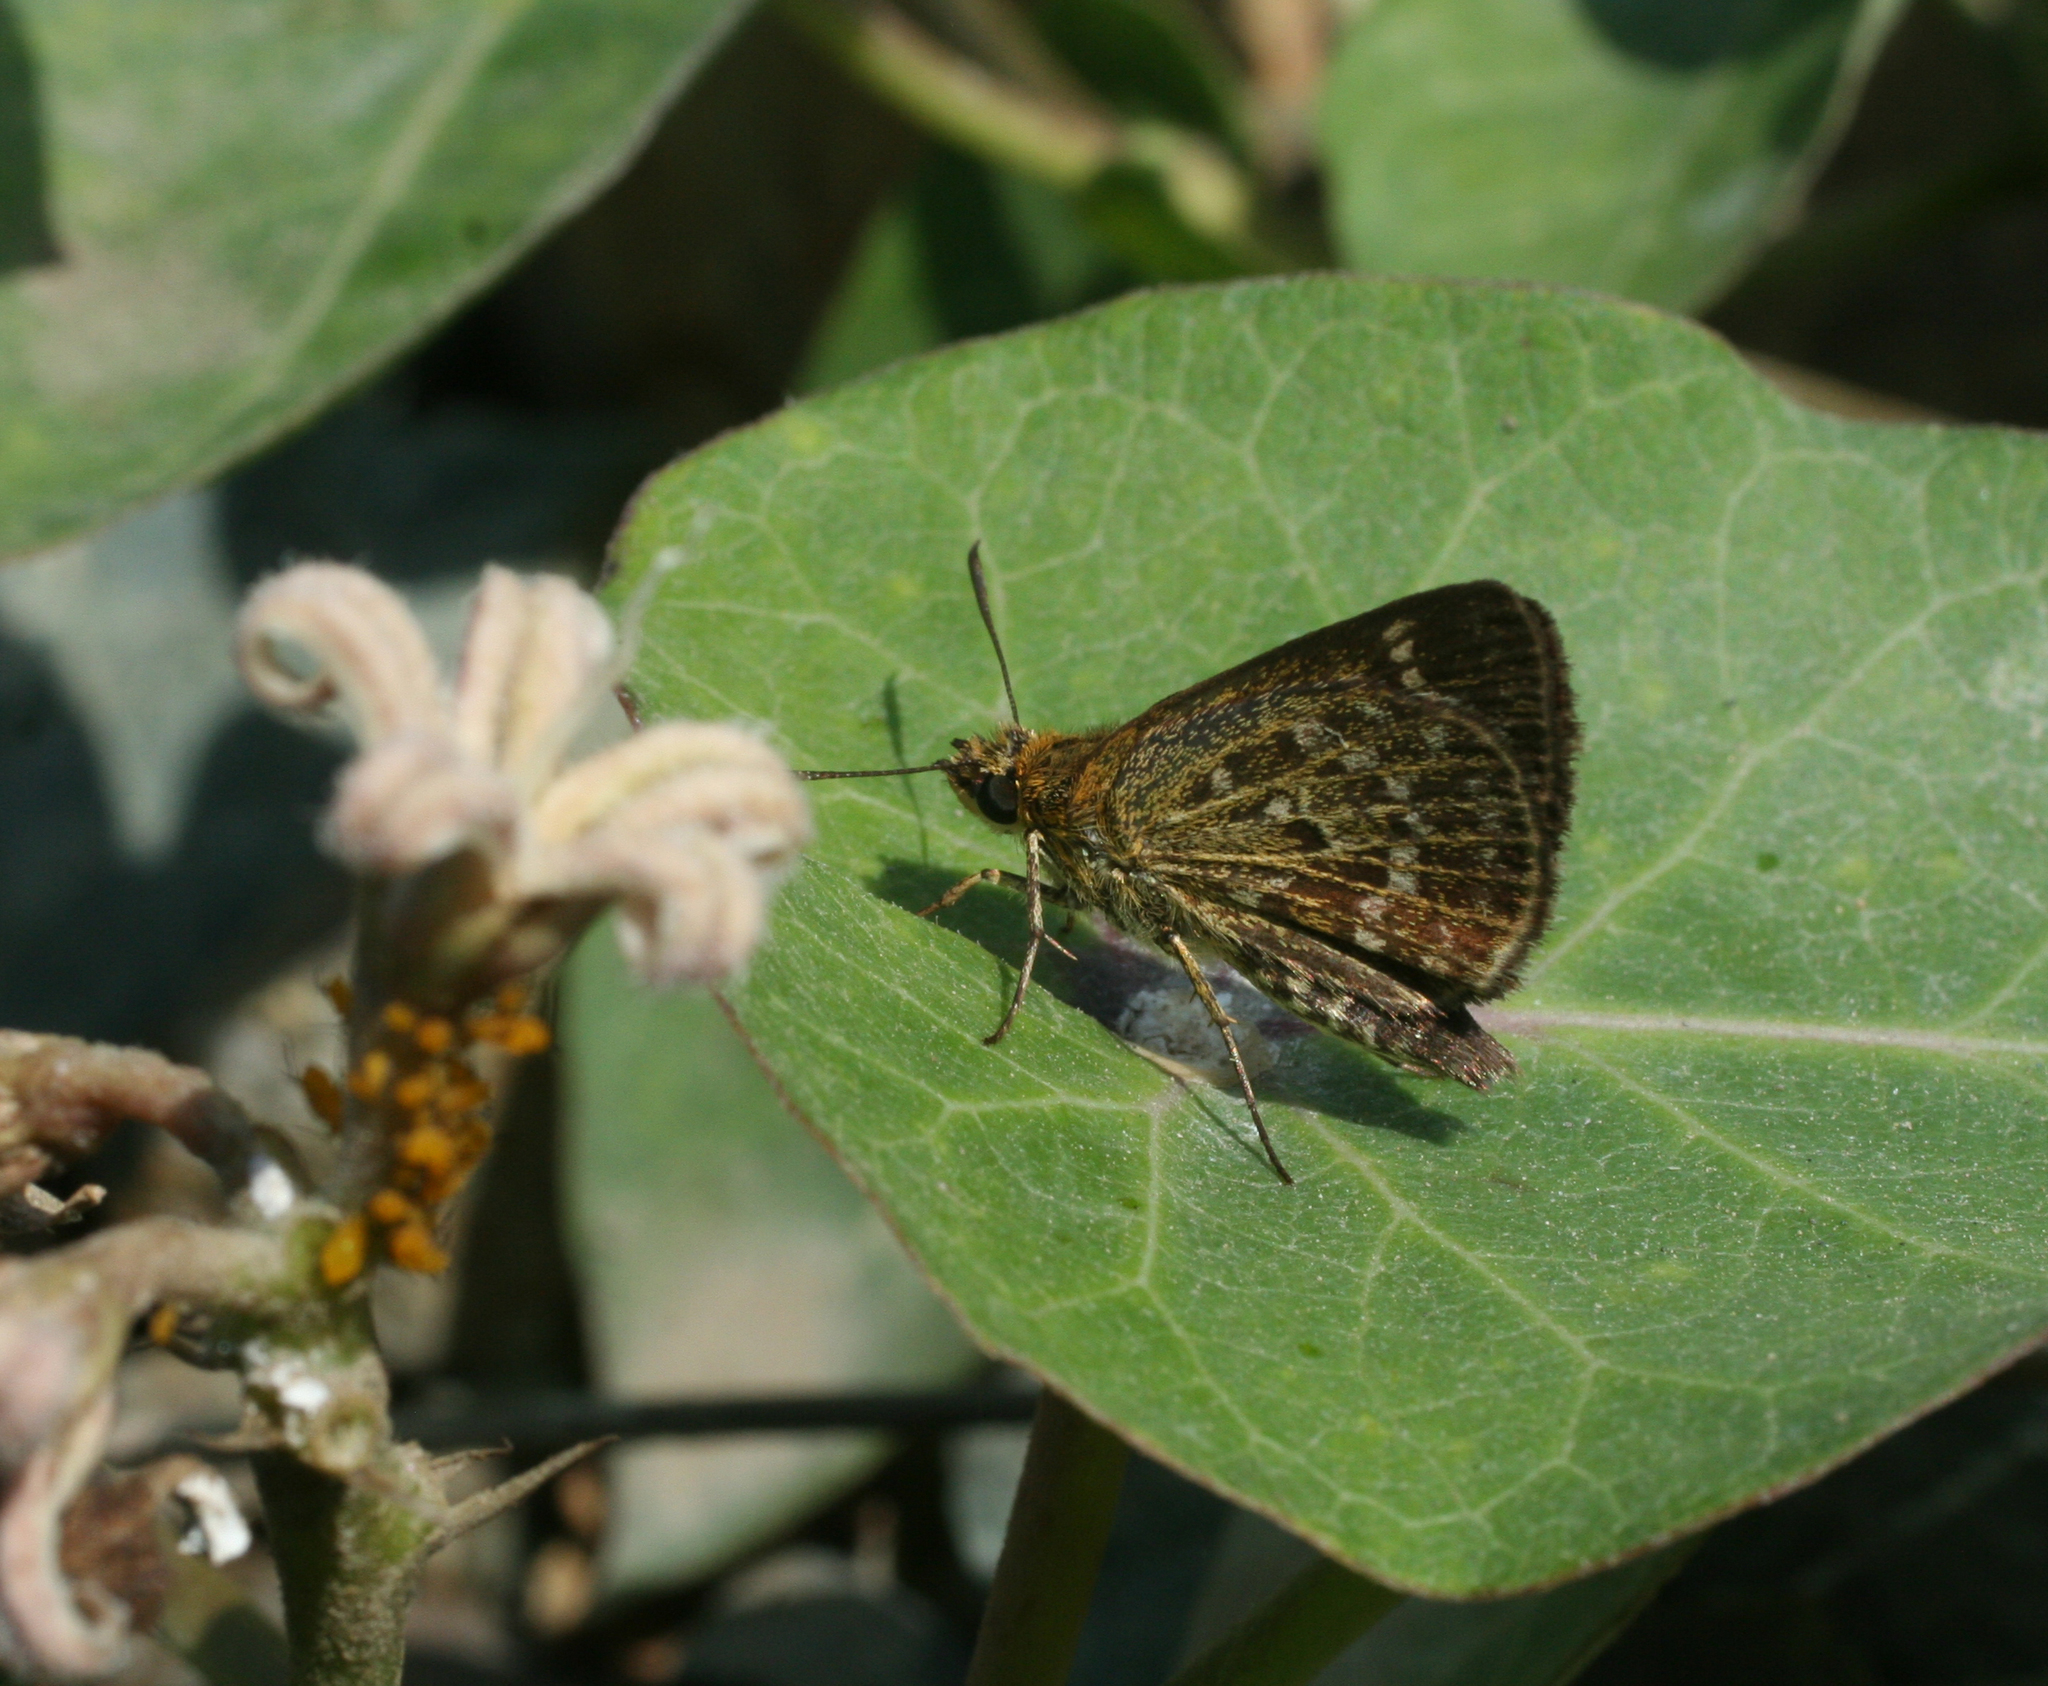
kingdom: Animalia
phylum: Arthropoda
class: Insecta
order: Lepidoptera
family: Hesperiidae
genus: Aeromachus
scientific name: Aeromachus inachus
